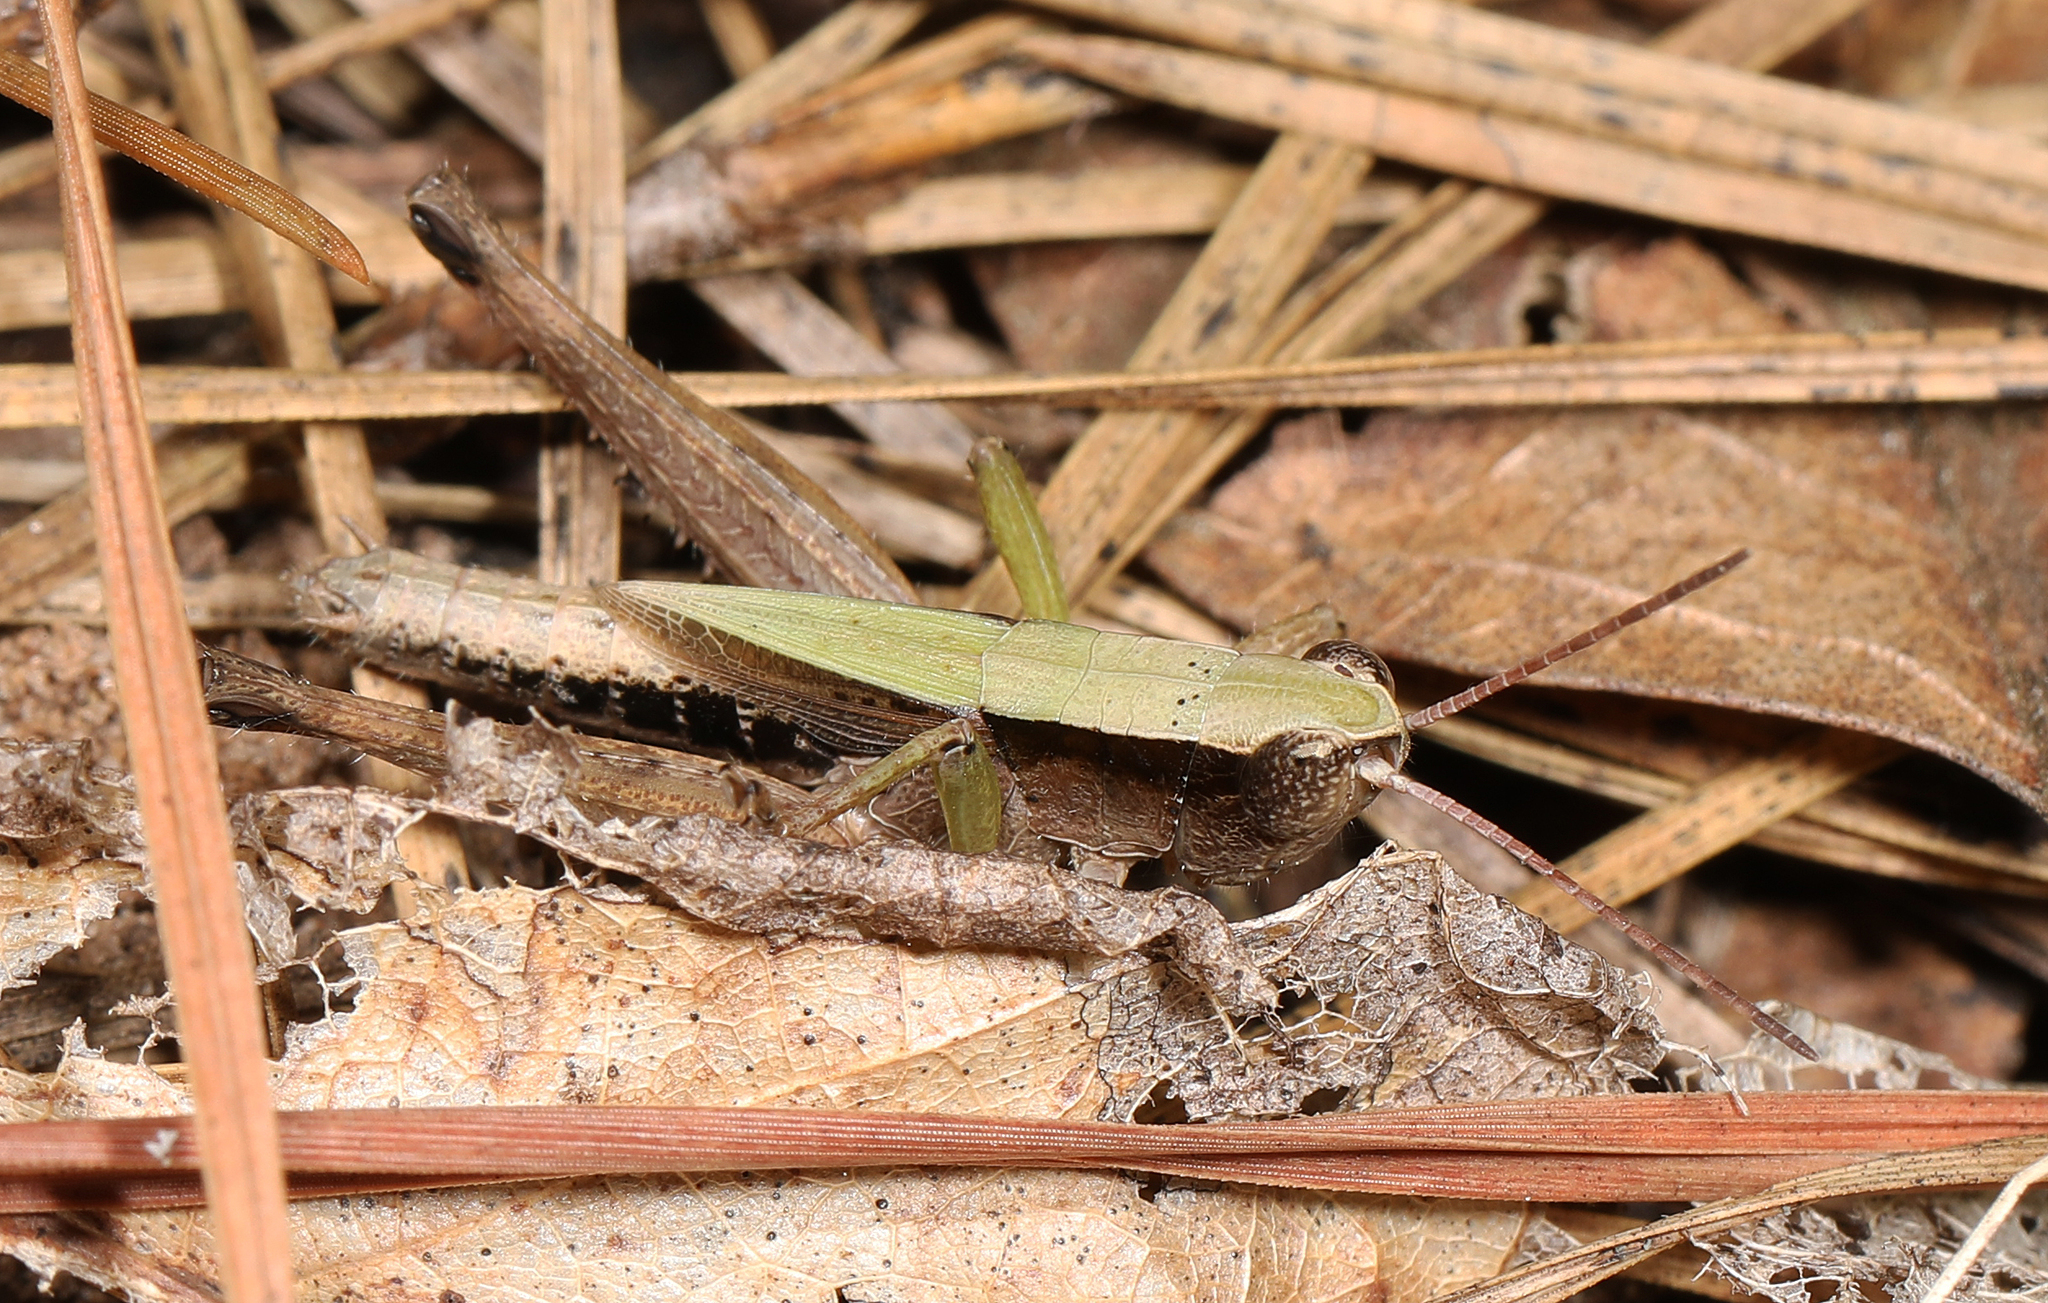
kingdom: Animalia
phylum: Arthropoda
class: Insecta
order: Orthoptera
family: Acrididae
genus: Dichromorpha
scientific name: Dichromorpha viridis
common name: Short-winged green grasshopper
